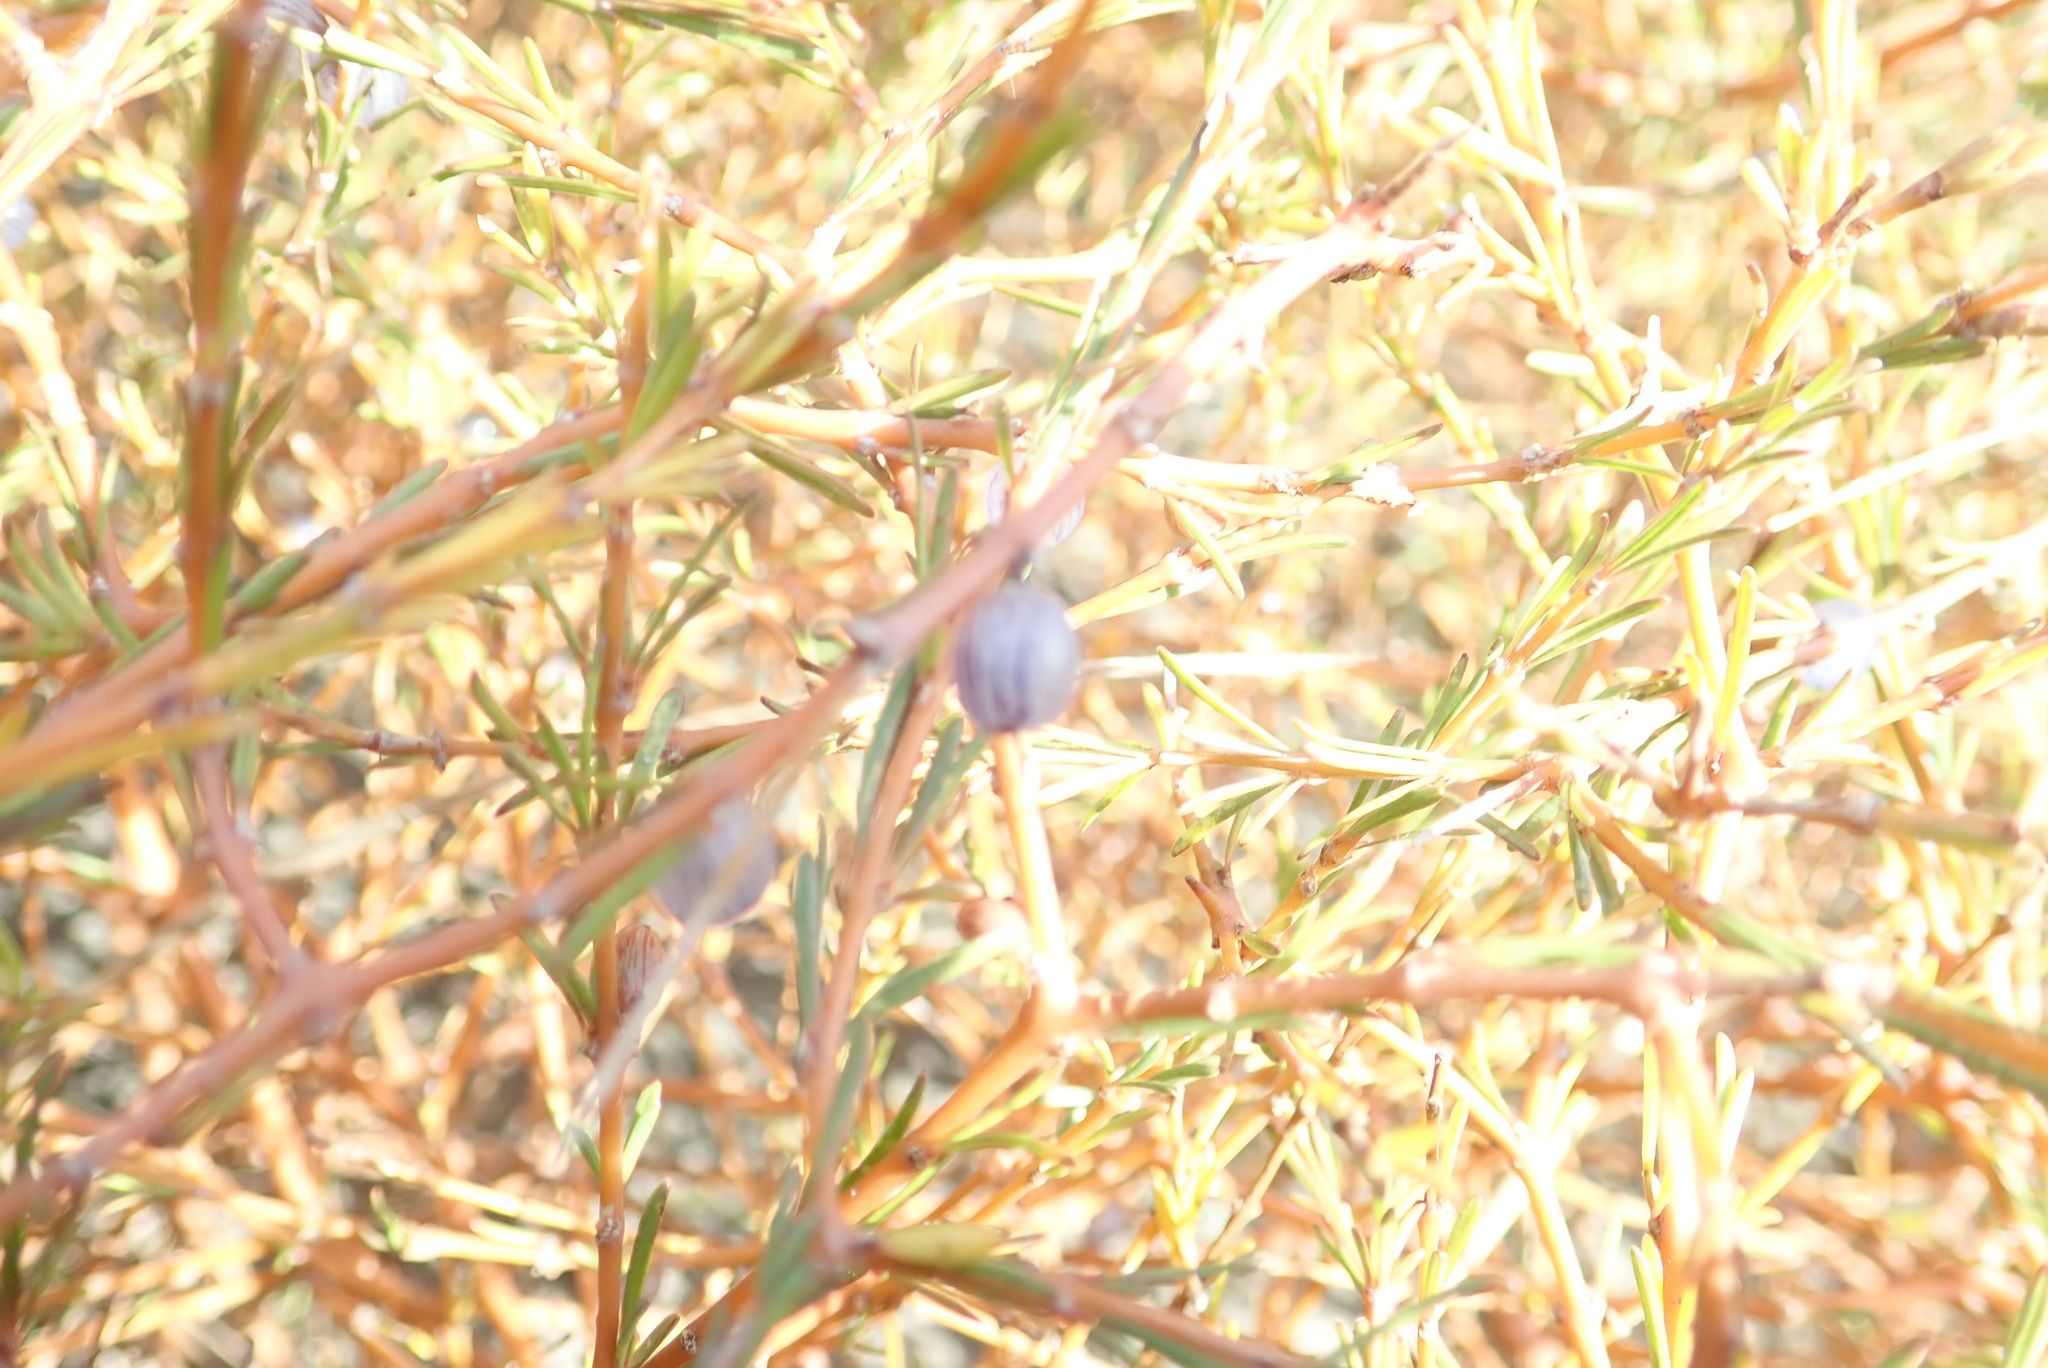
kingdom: Plantae
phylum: Tracheophyta
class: Magnoliopsida
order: Gentianales
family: Rubiaceae
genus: Coprosma
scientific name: Coprosma acerosa
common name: Sand coprosma
